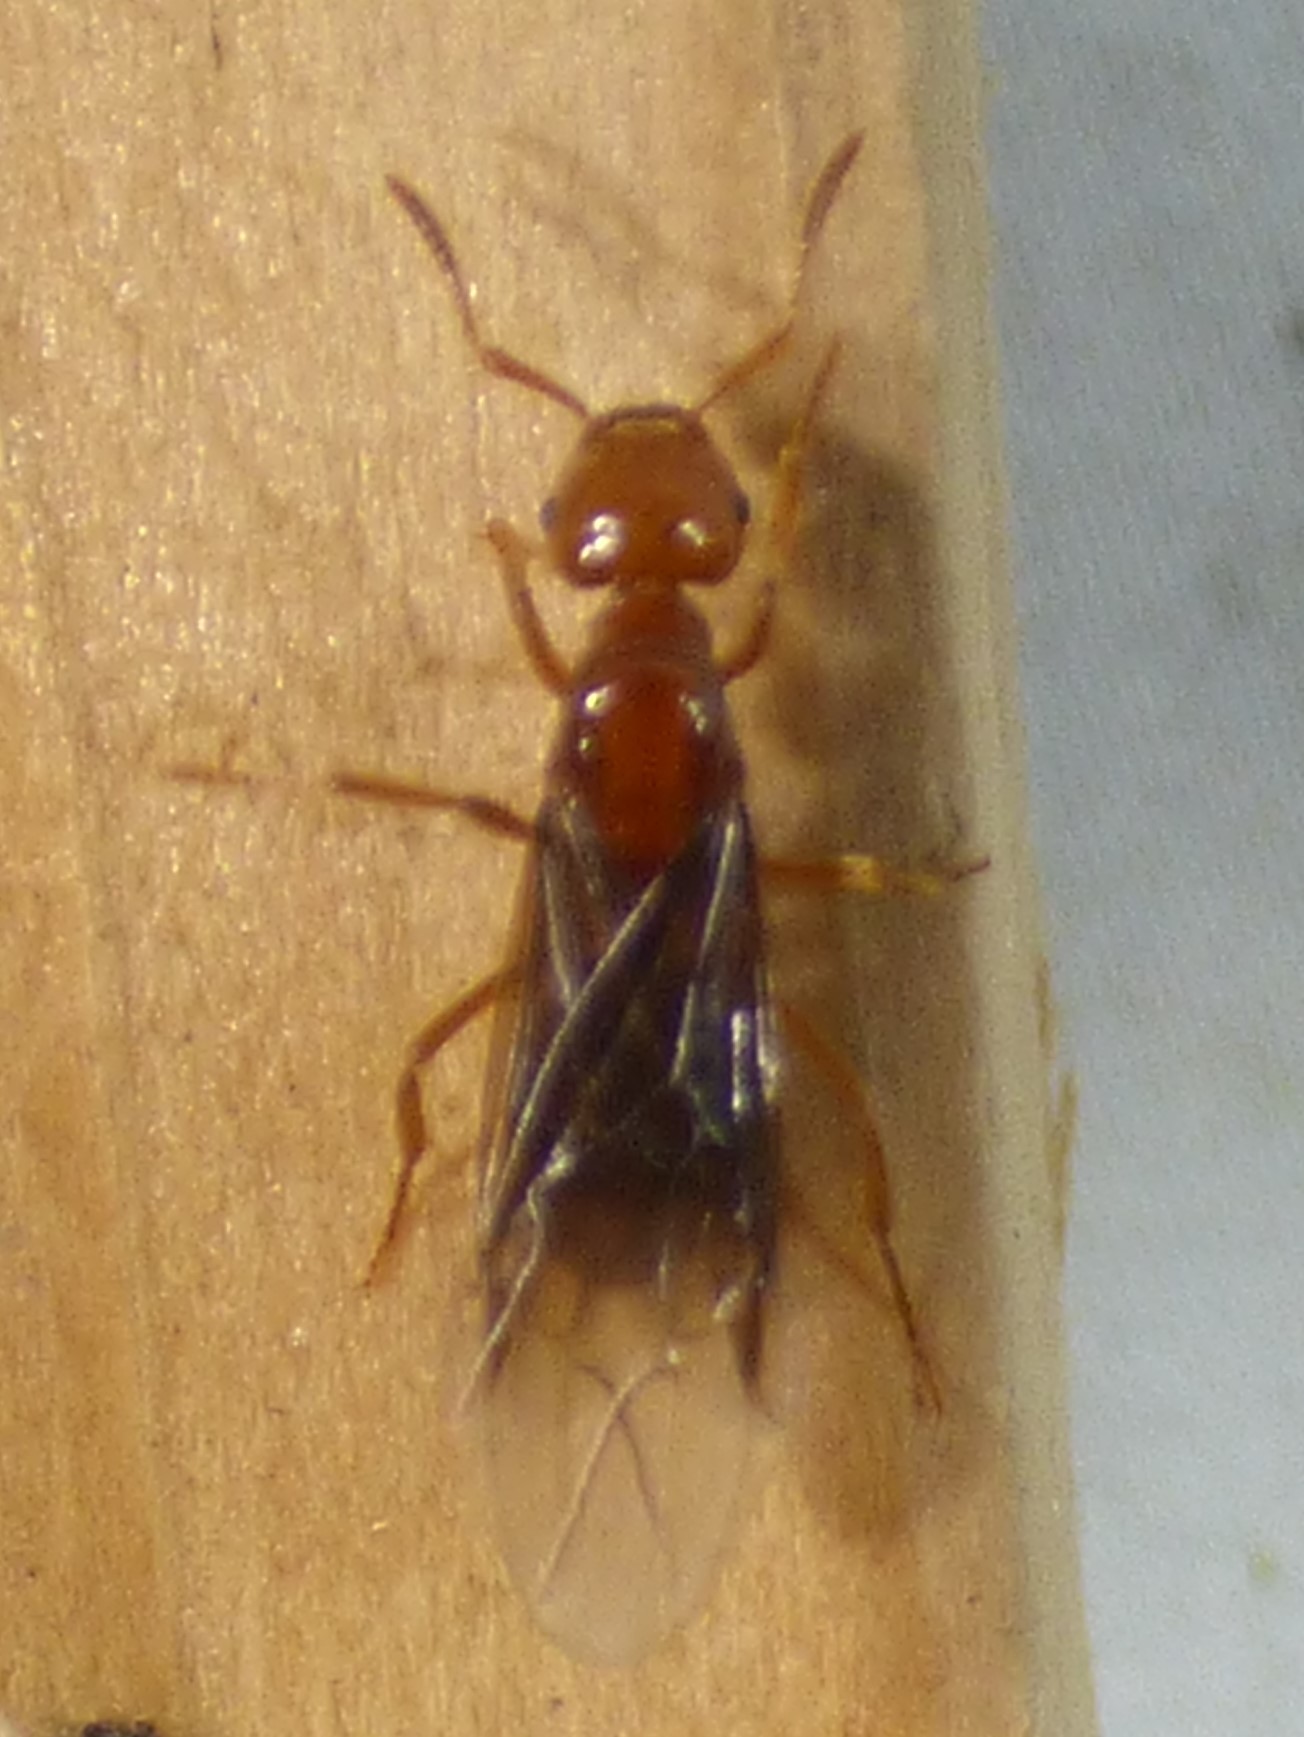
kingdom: Animalia
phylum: Arthropoda
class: Insecta
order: Hymenoptera
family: Formicidae
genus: Acanthomyops
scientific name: Acanthomyops interjectus
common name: Larger yellow ant
